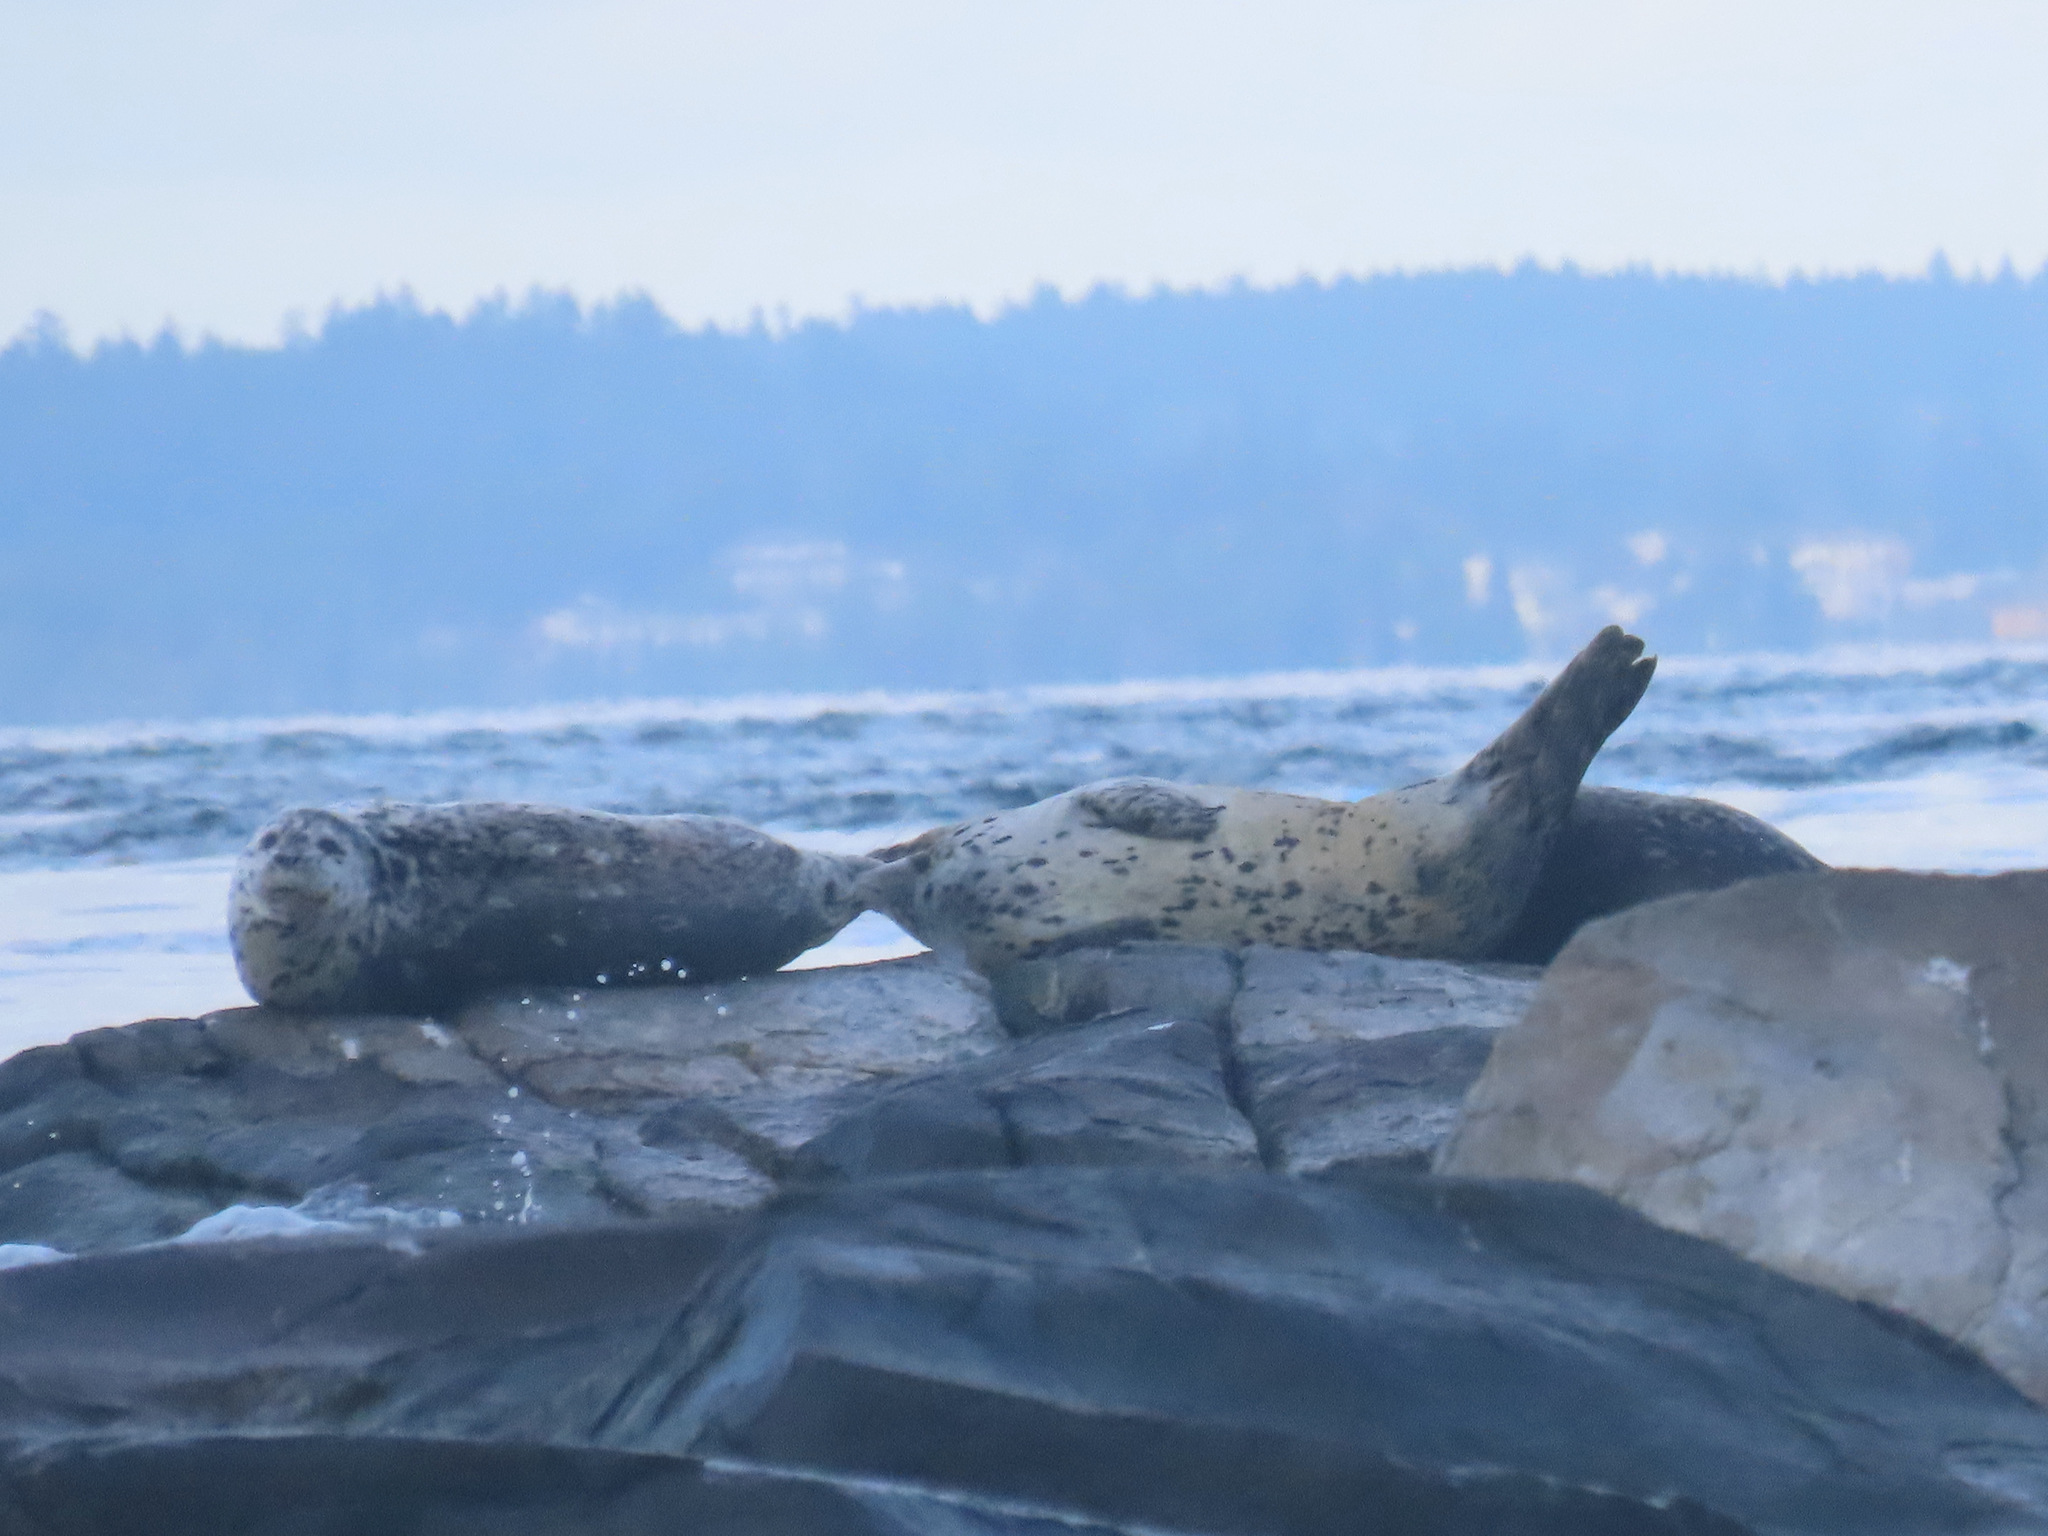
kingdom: Animalia
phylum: Chordata
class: Mammalia
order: Carnivora
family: Phocidae
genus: Phoca
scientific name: Phoca vitulina
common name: Harbor seal
